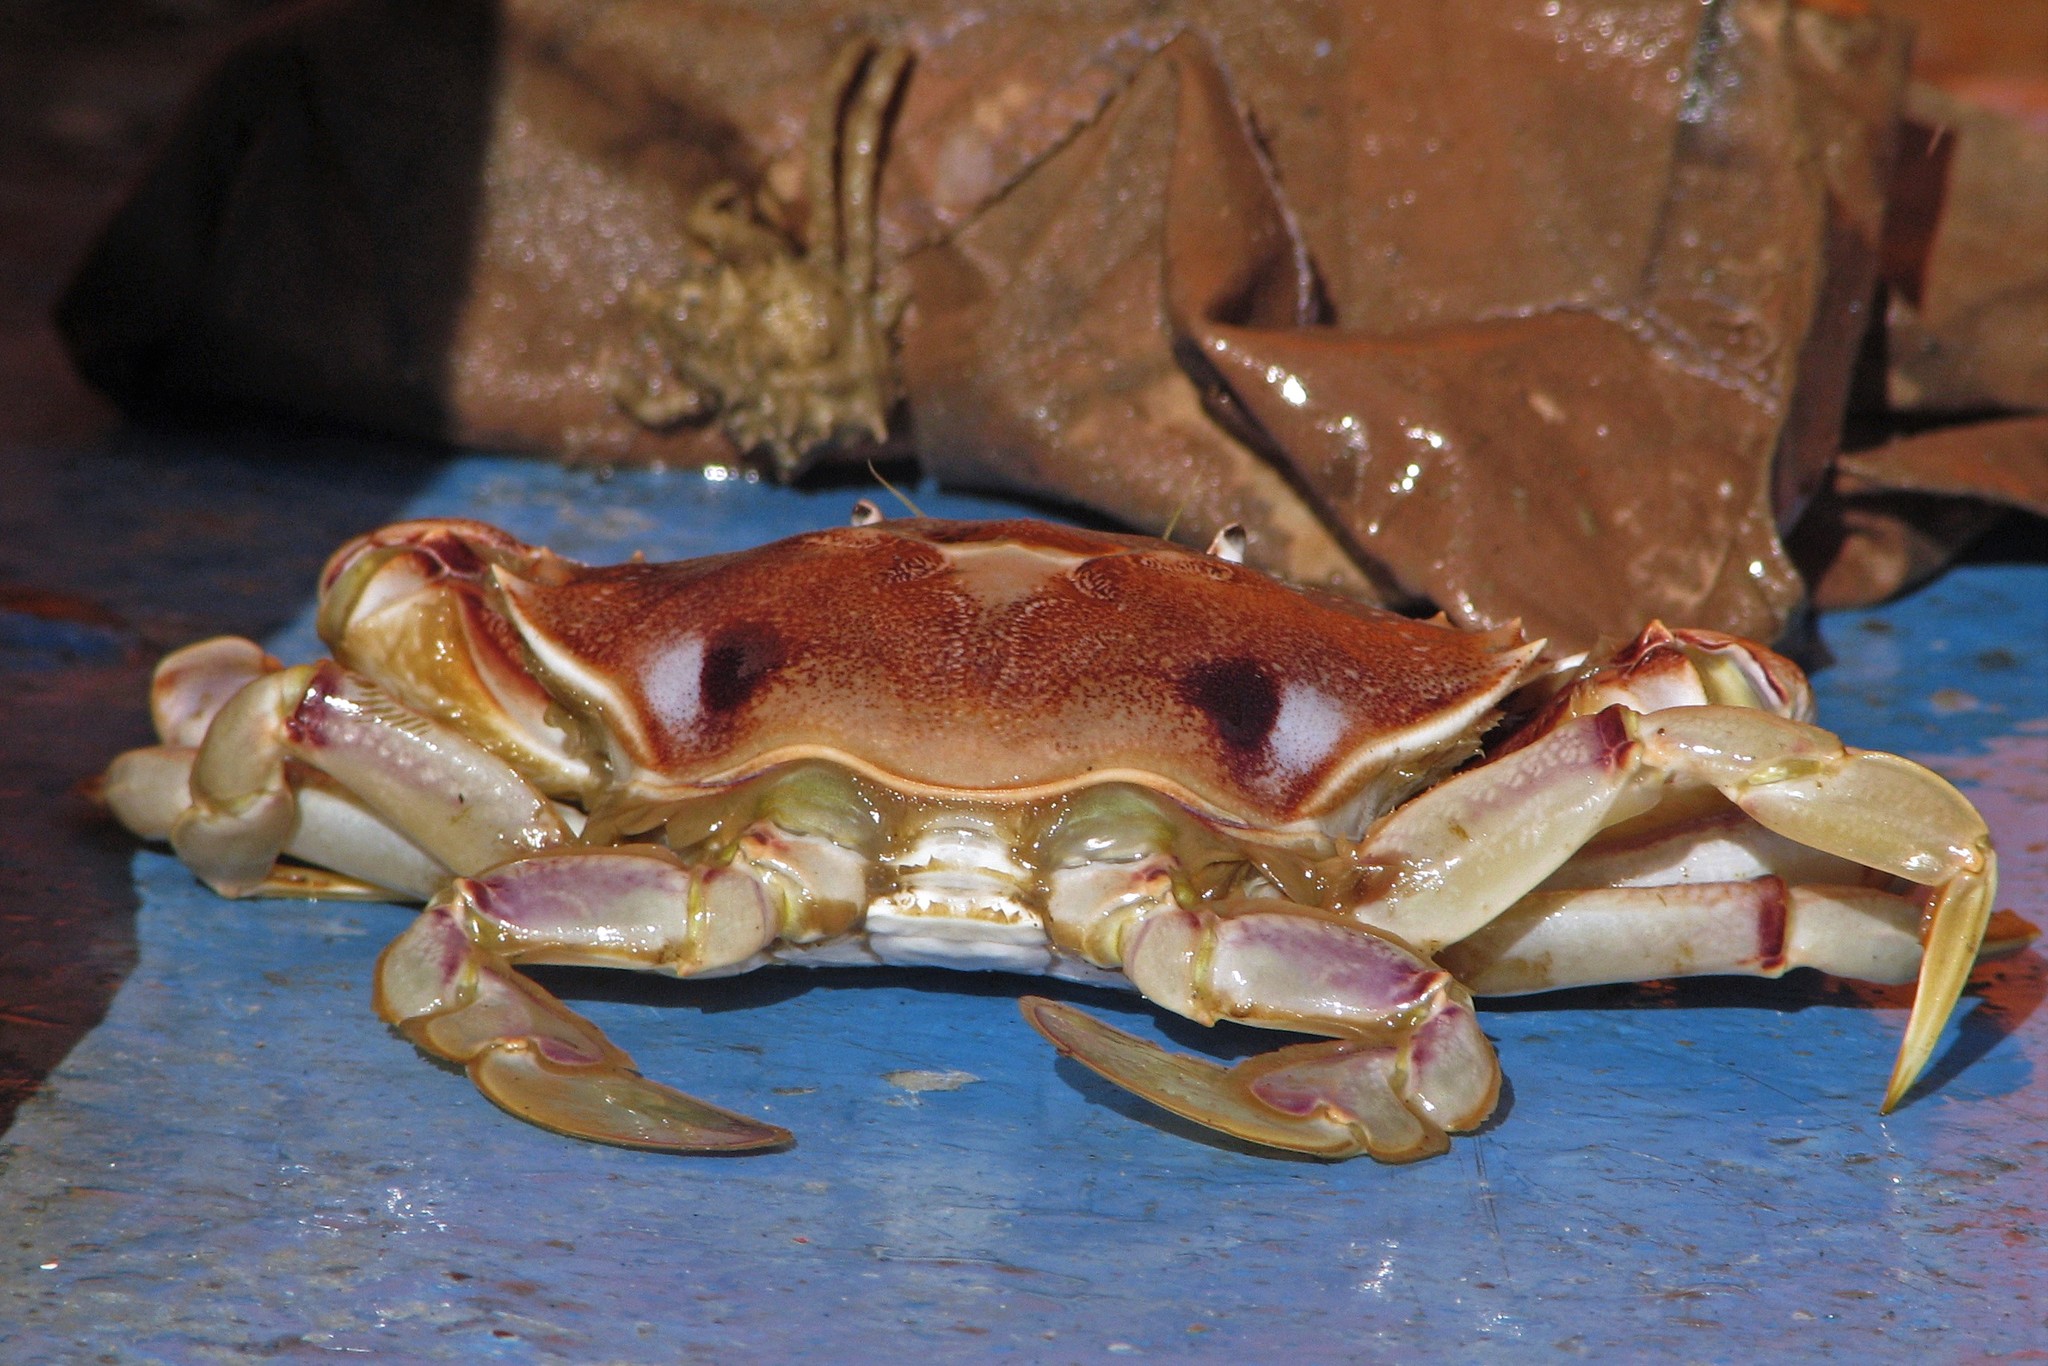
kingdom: Animalia
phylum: Arthropoda
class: Malacostraca
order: Decapoda
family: Ovalipidae
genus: Ovalipes
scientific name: Ovalipes trimaculatus
